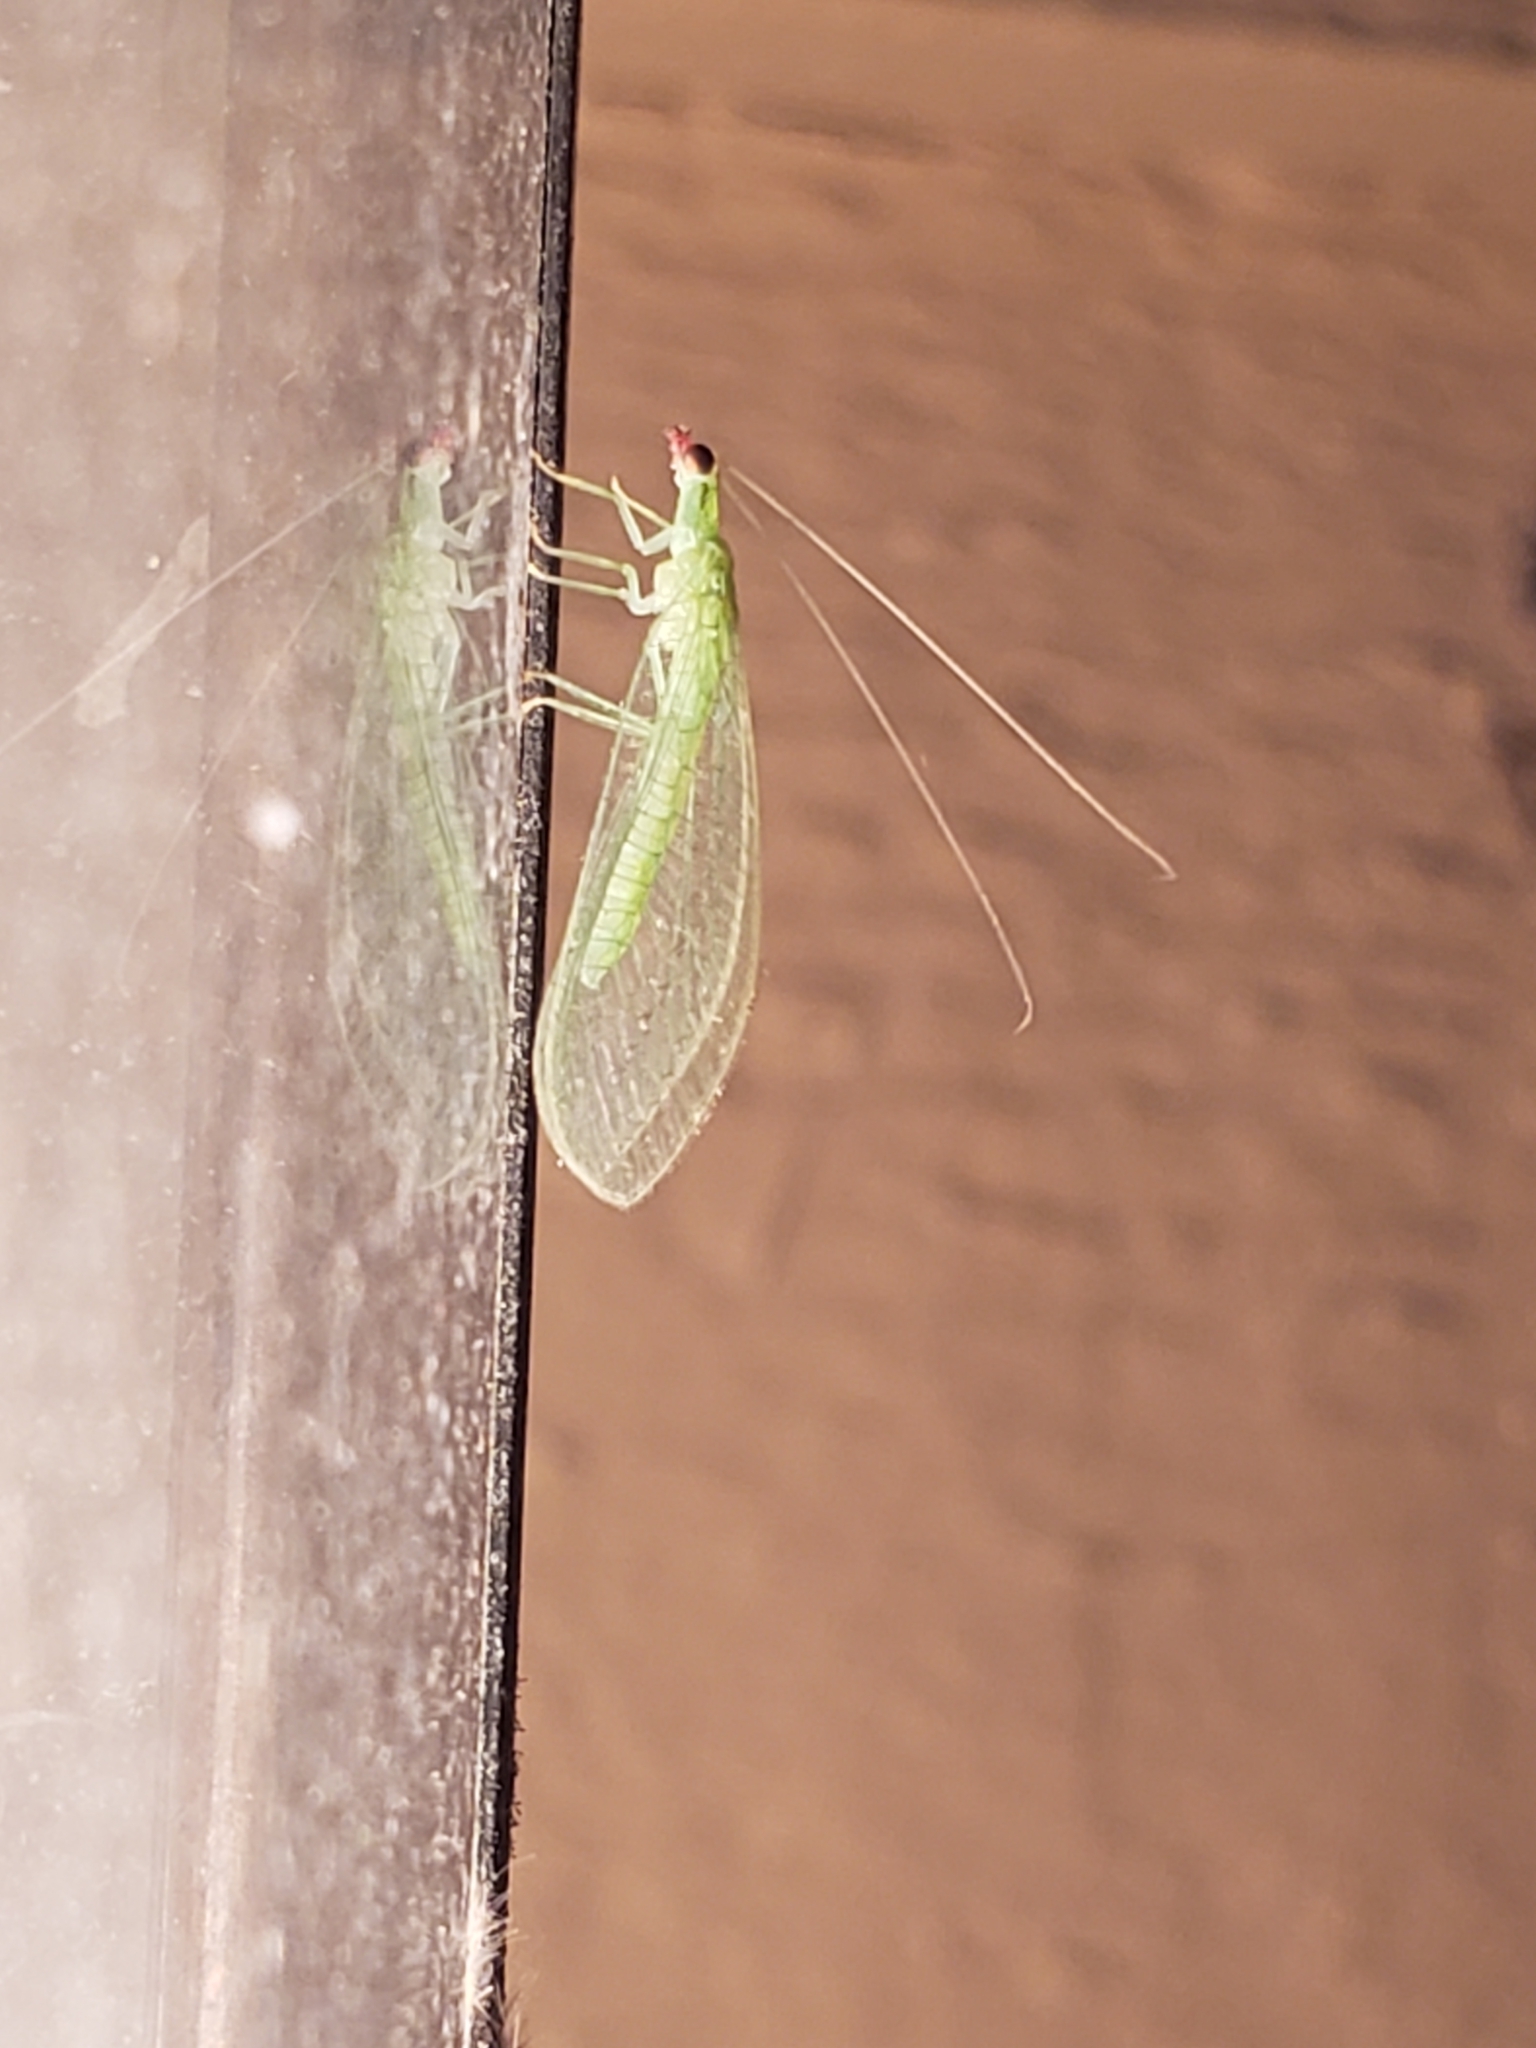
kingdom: Animalia
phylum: Arthropoda
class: Insecta
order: Neuroptera
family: Chrysopidae
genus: Chrysoperla
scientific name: Chrysoperla rufilabris
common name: Red-lipped green lacewing
